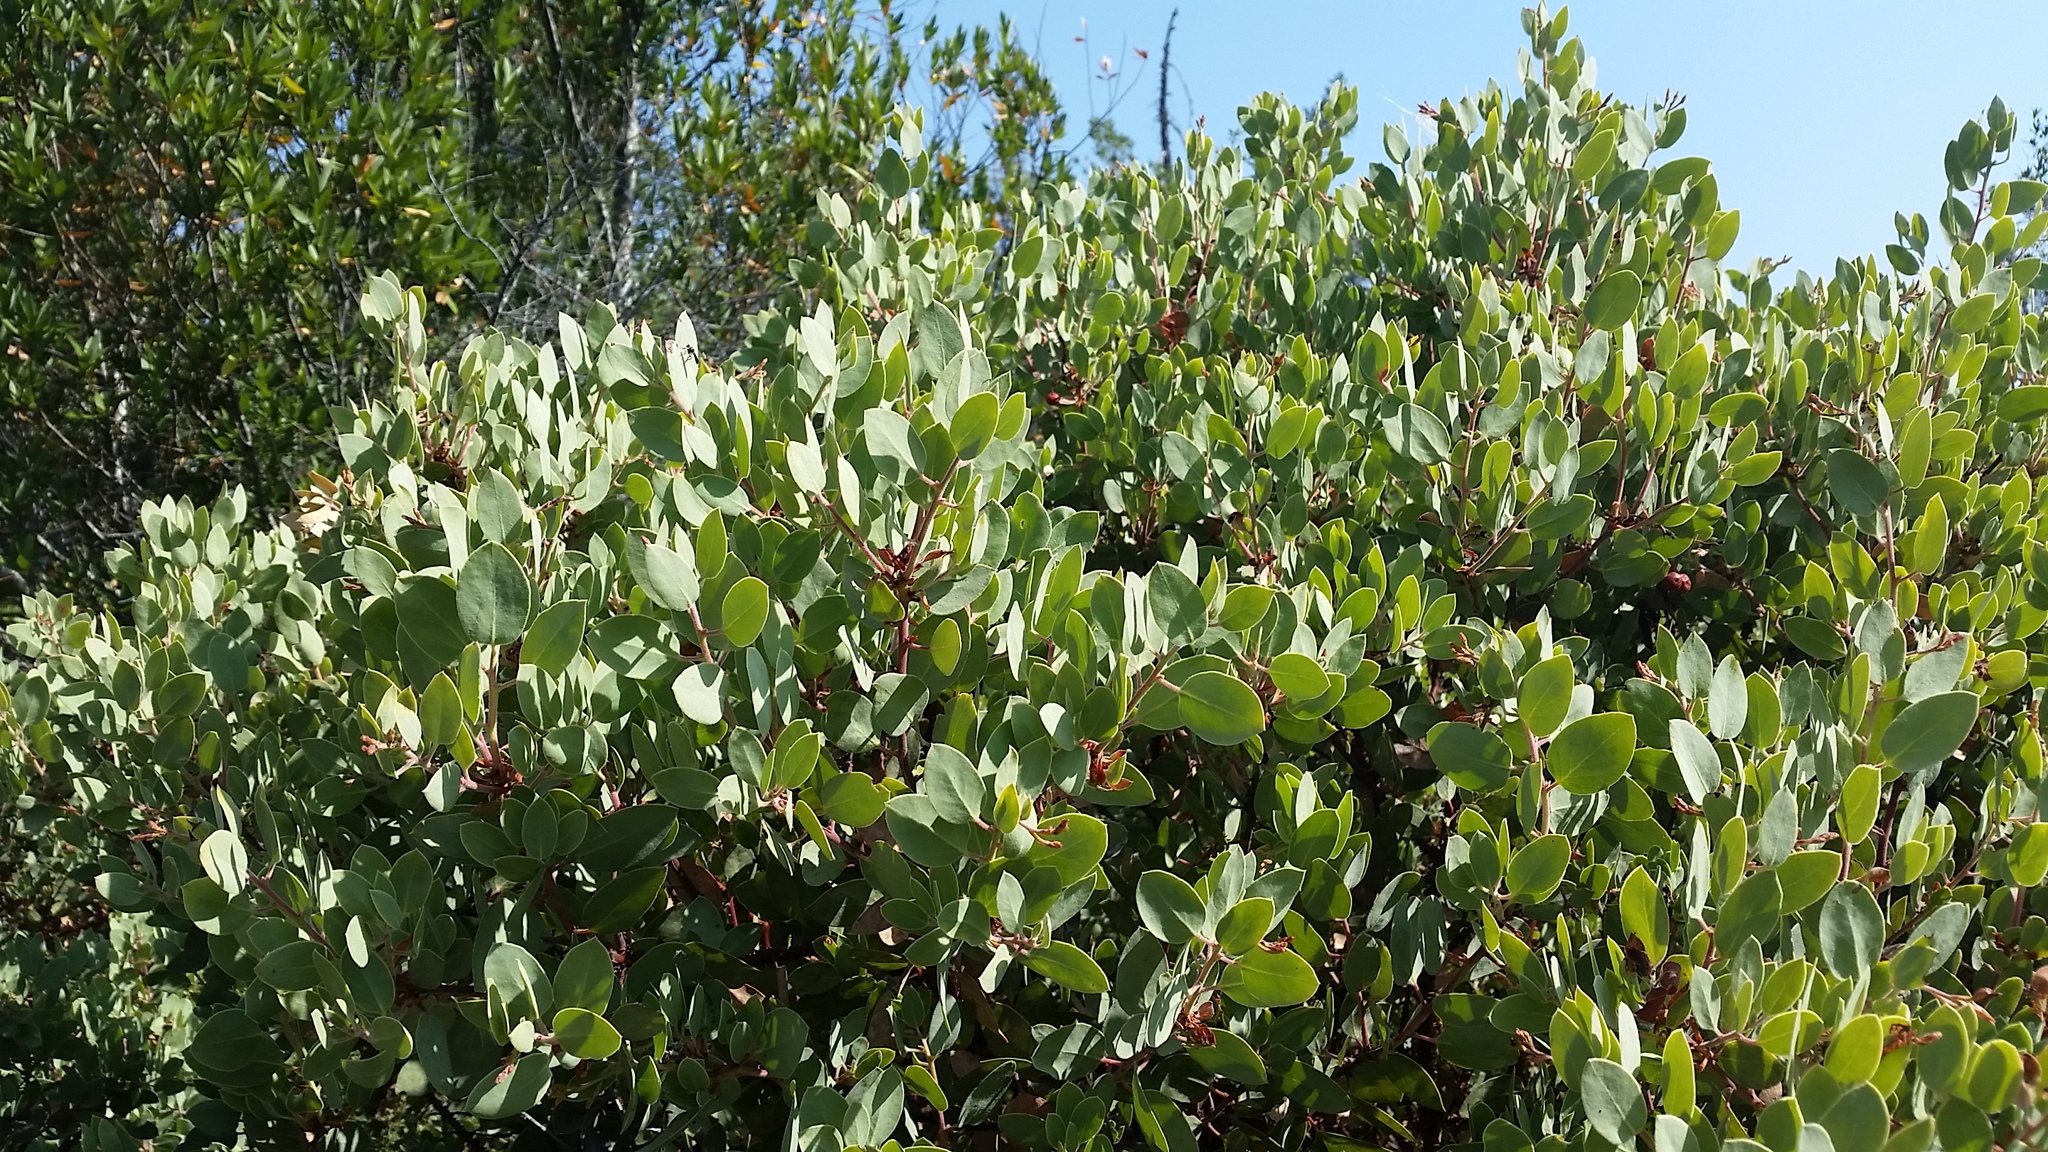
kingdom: Plantae
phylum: Tracheophyta
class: Magnoliopsida
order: Ericales
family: Ericaceae
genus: Arctostaphylos
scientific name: Arctostaphylos viscida
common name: White-leaf manzanita
